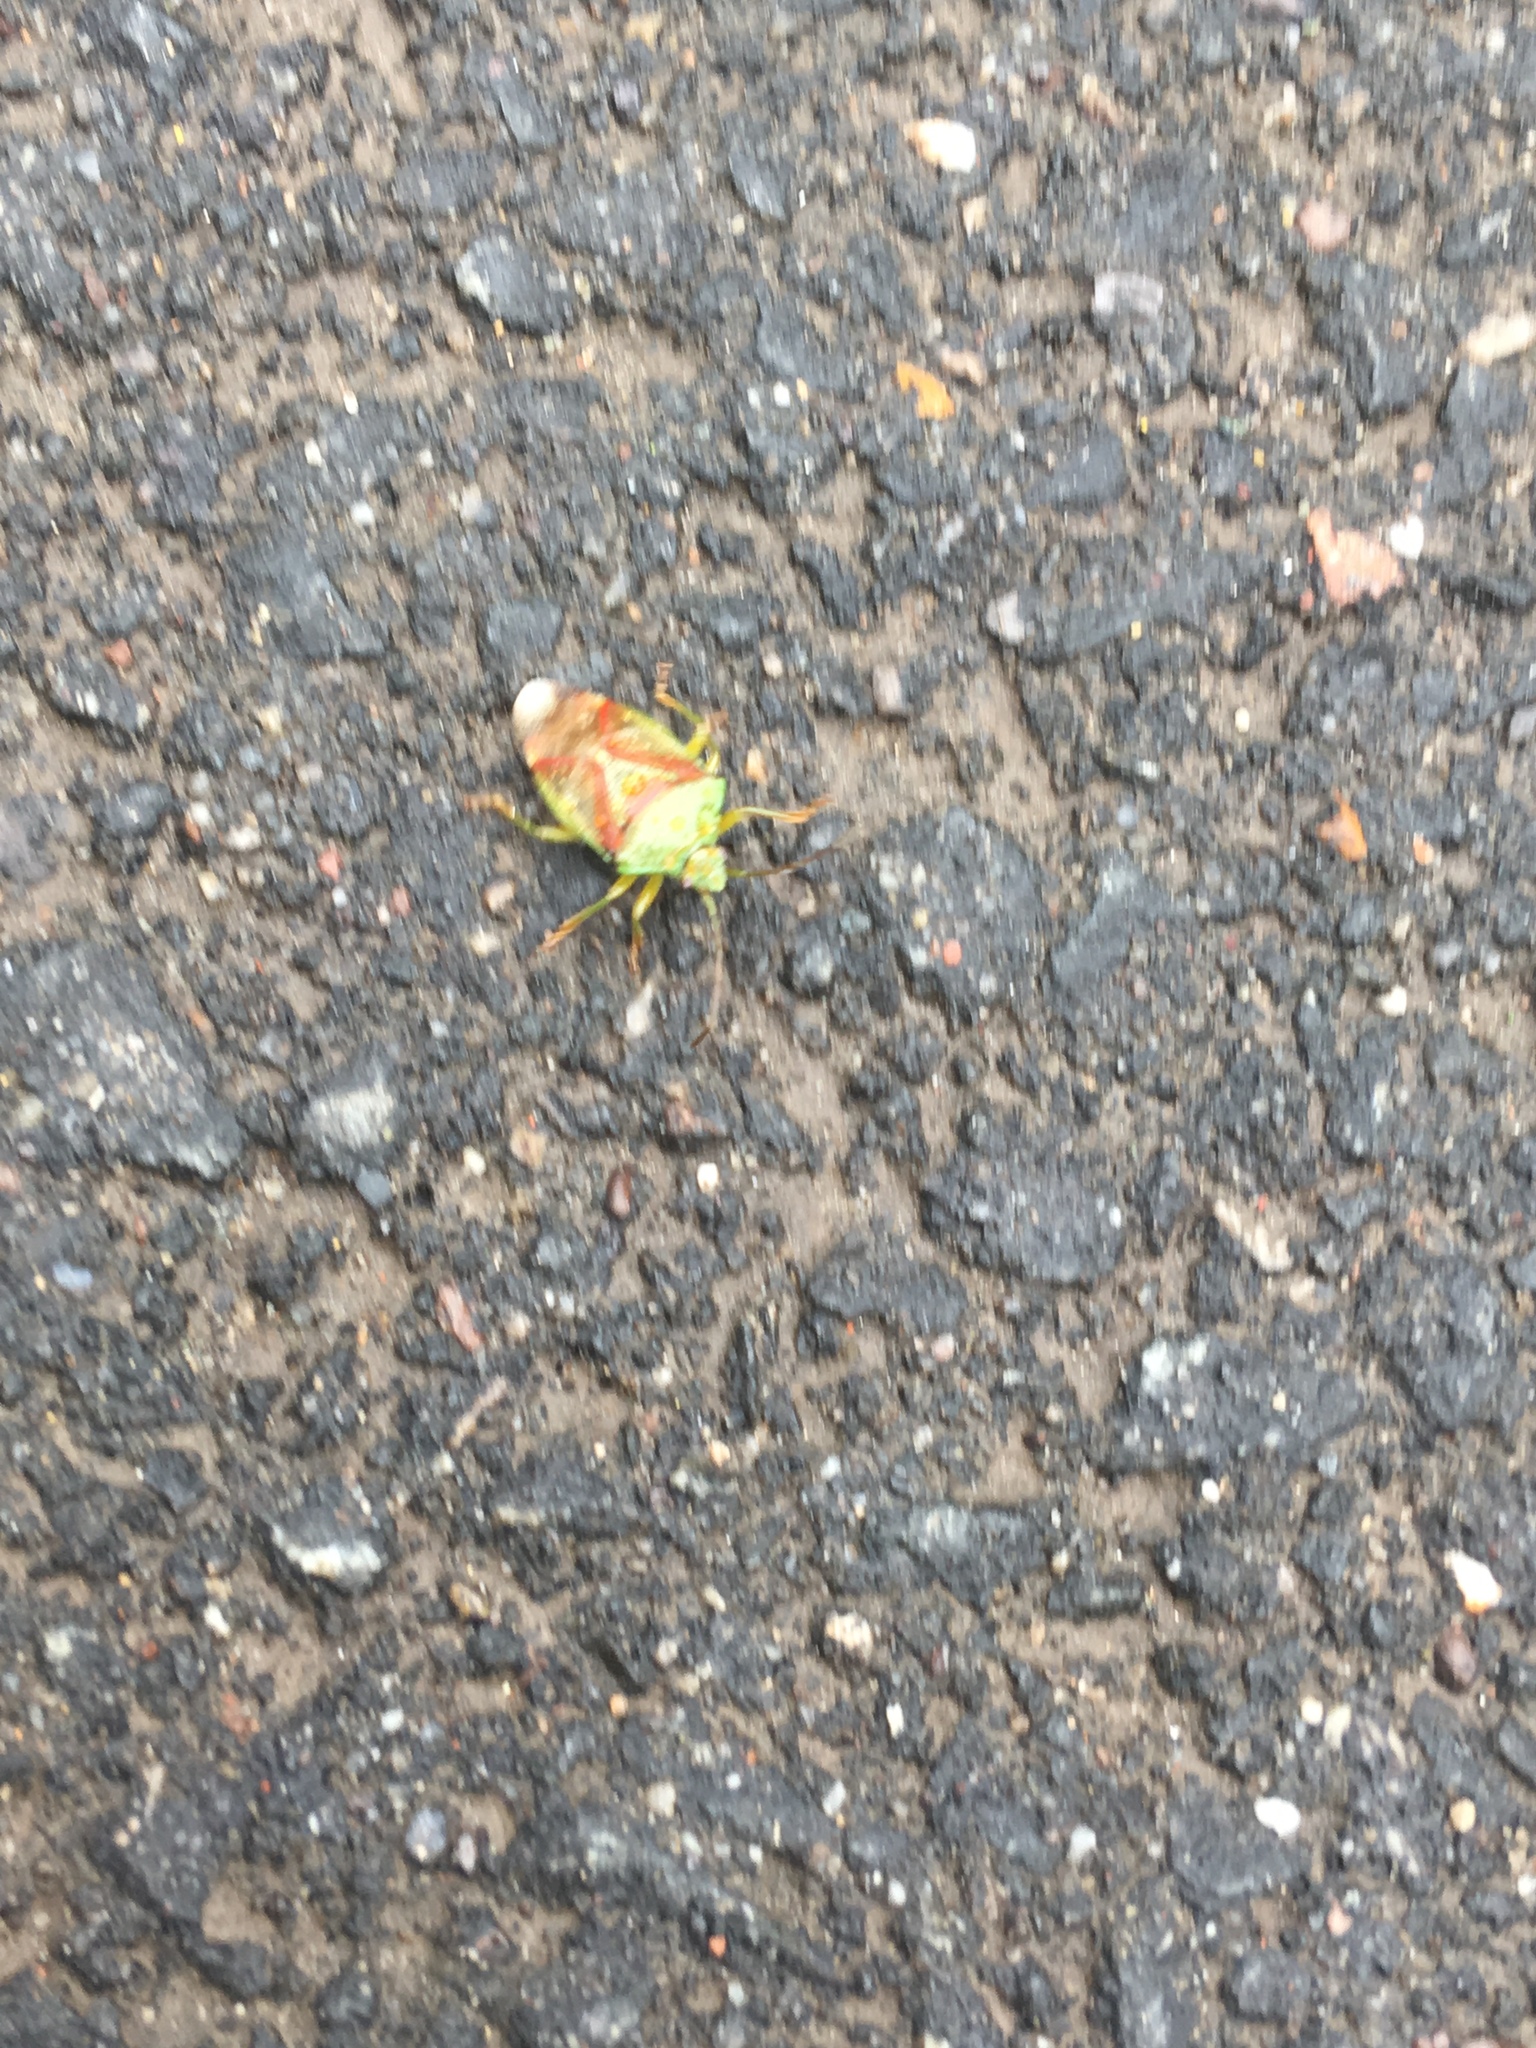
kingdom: Animalia
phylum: Arthropoda
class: Insecta
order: Hemiptera
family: Acanthosomatidae
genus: Elasmostethus
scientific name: Elasmostethus interstinctus
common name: Birch shieldbug
